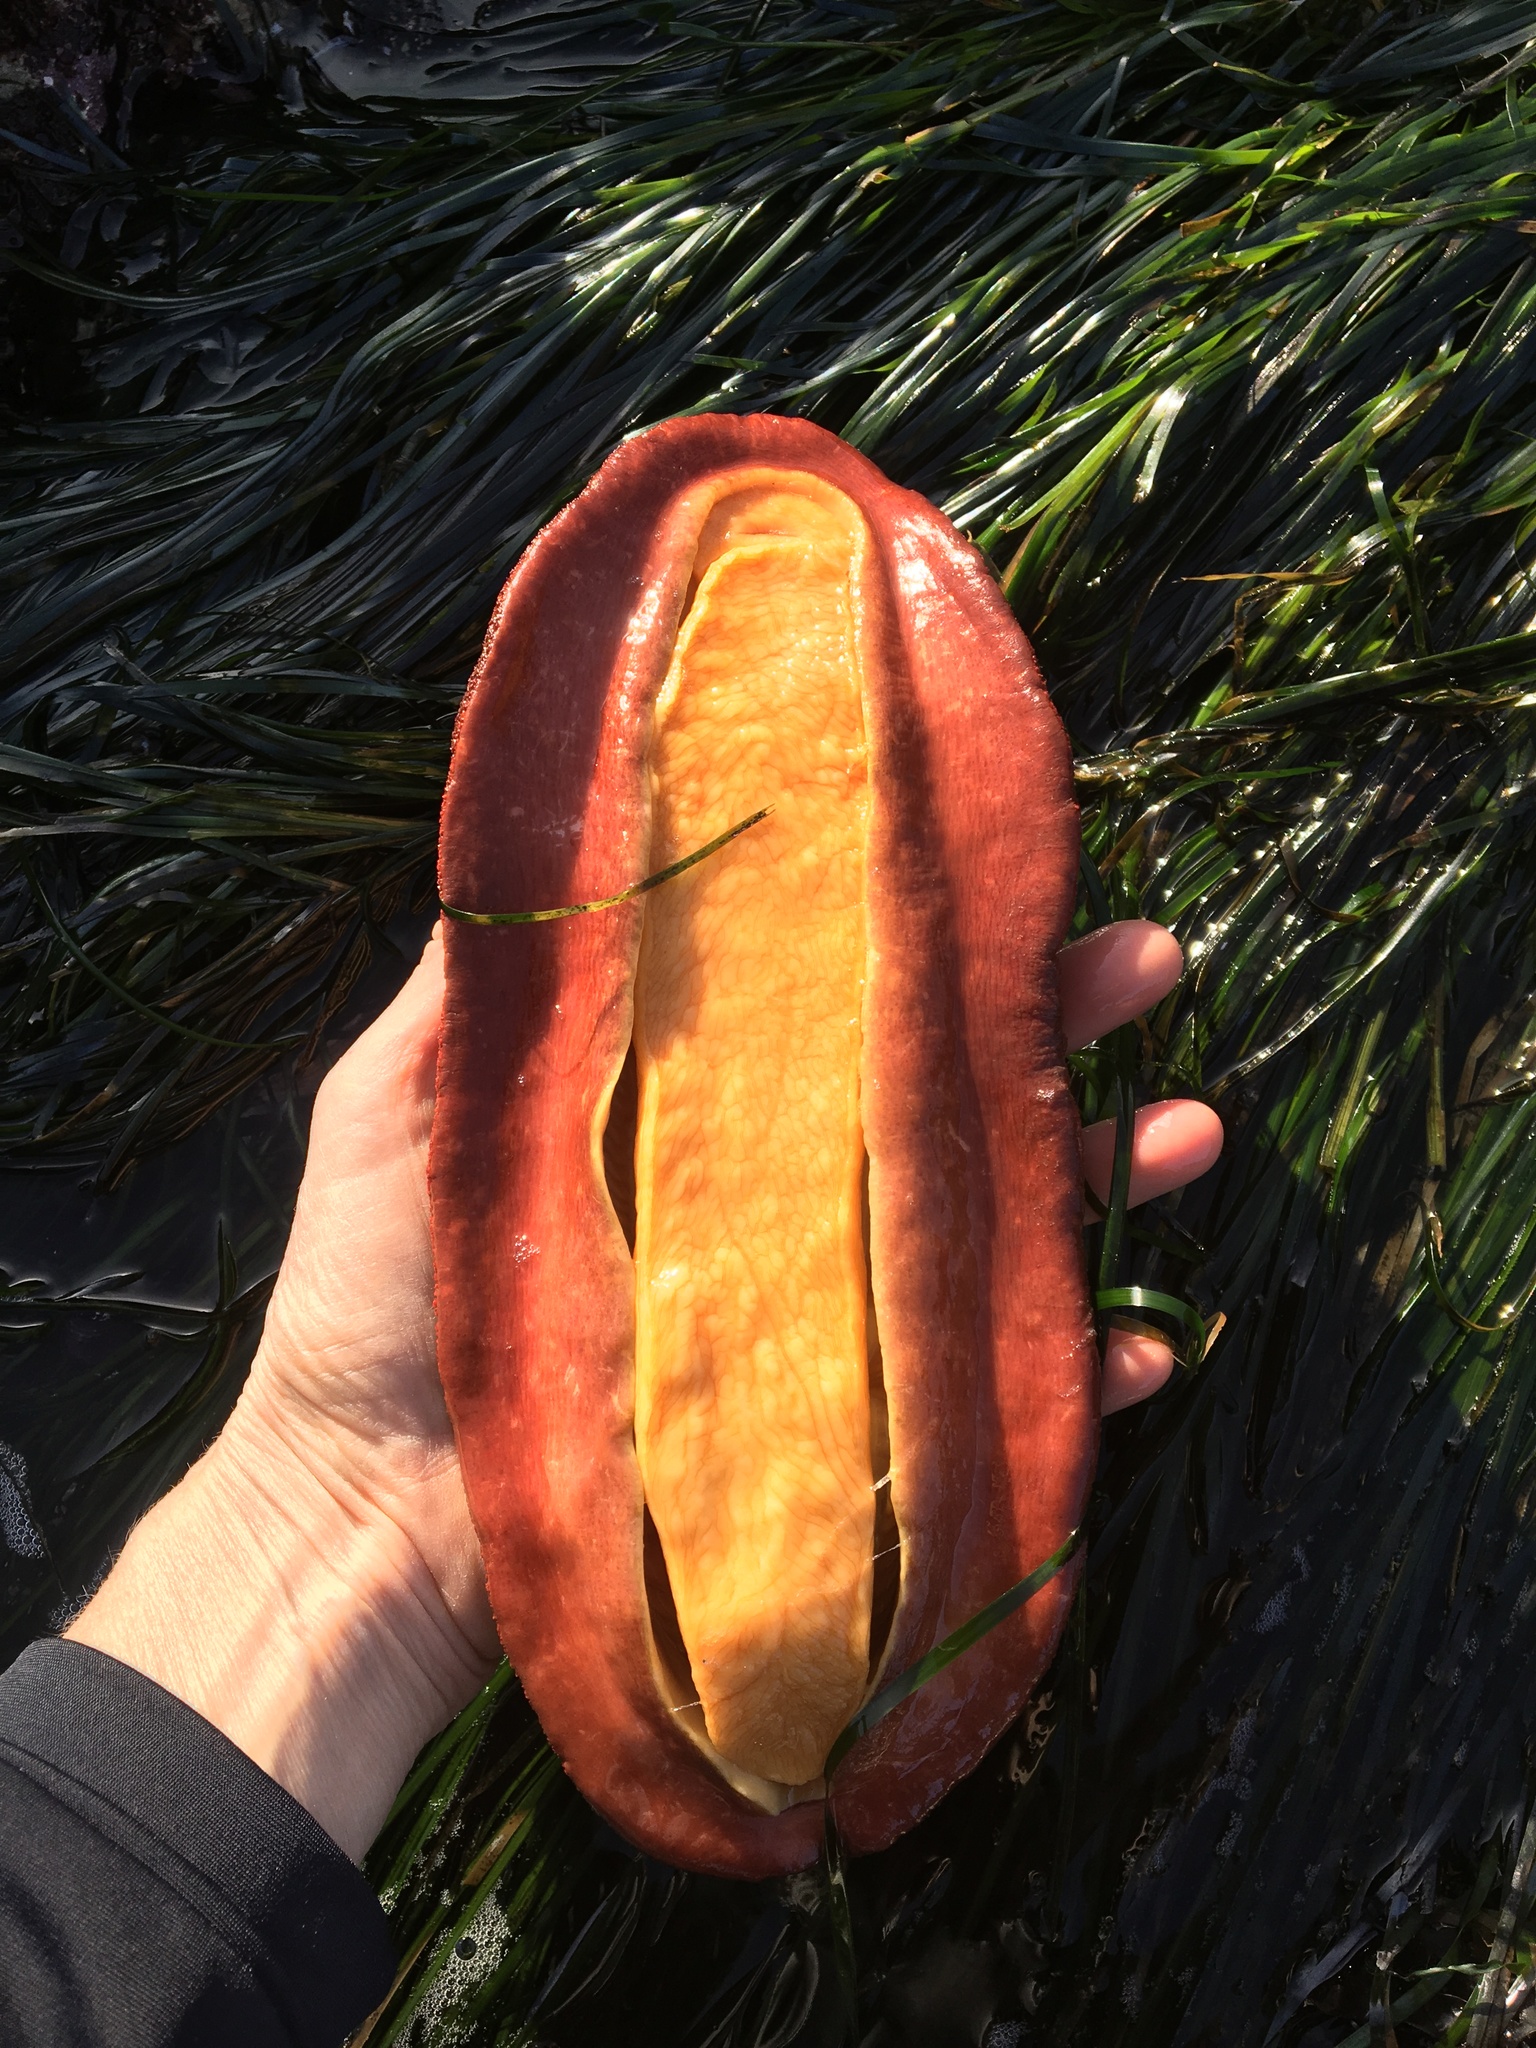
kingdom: Animalia
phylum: Mollusca
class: Polyplacophora
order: Chitonida
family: Acanthochitonidae
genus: Cryptochiton
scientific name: Cryptochiton stelleri
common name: Giant pacific chiton
